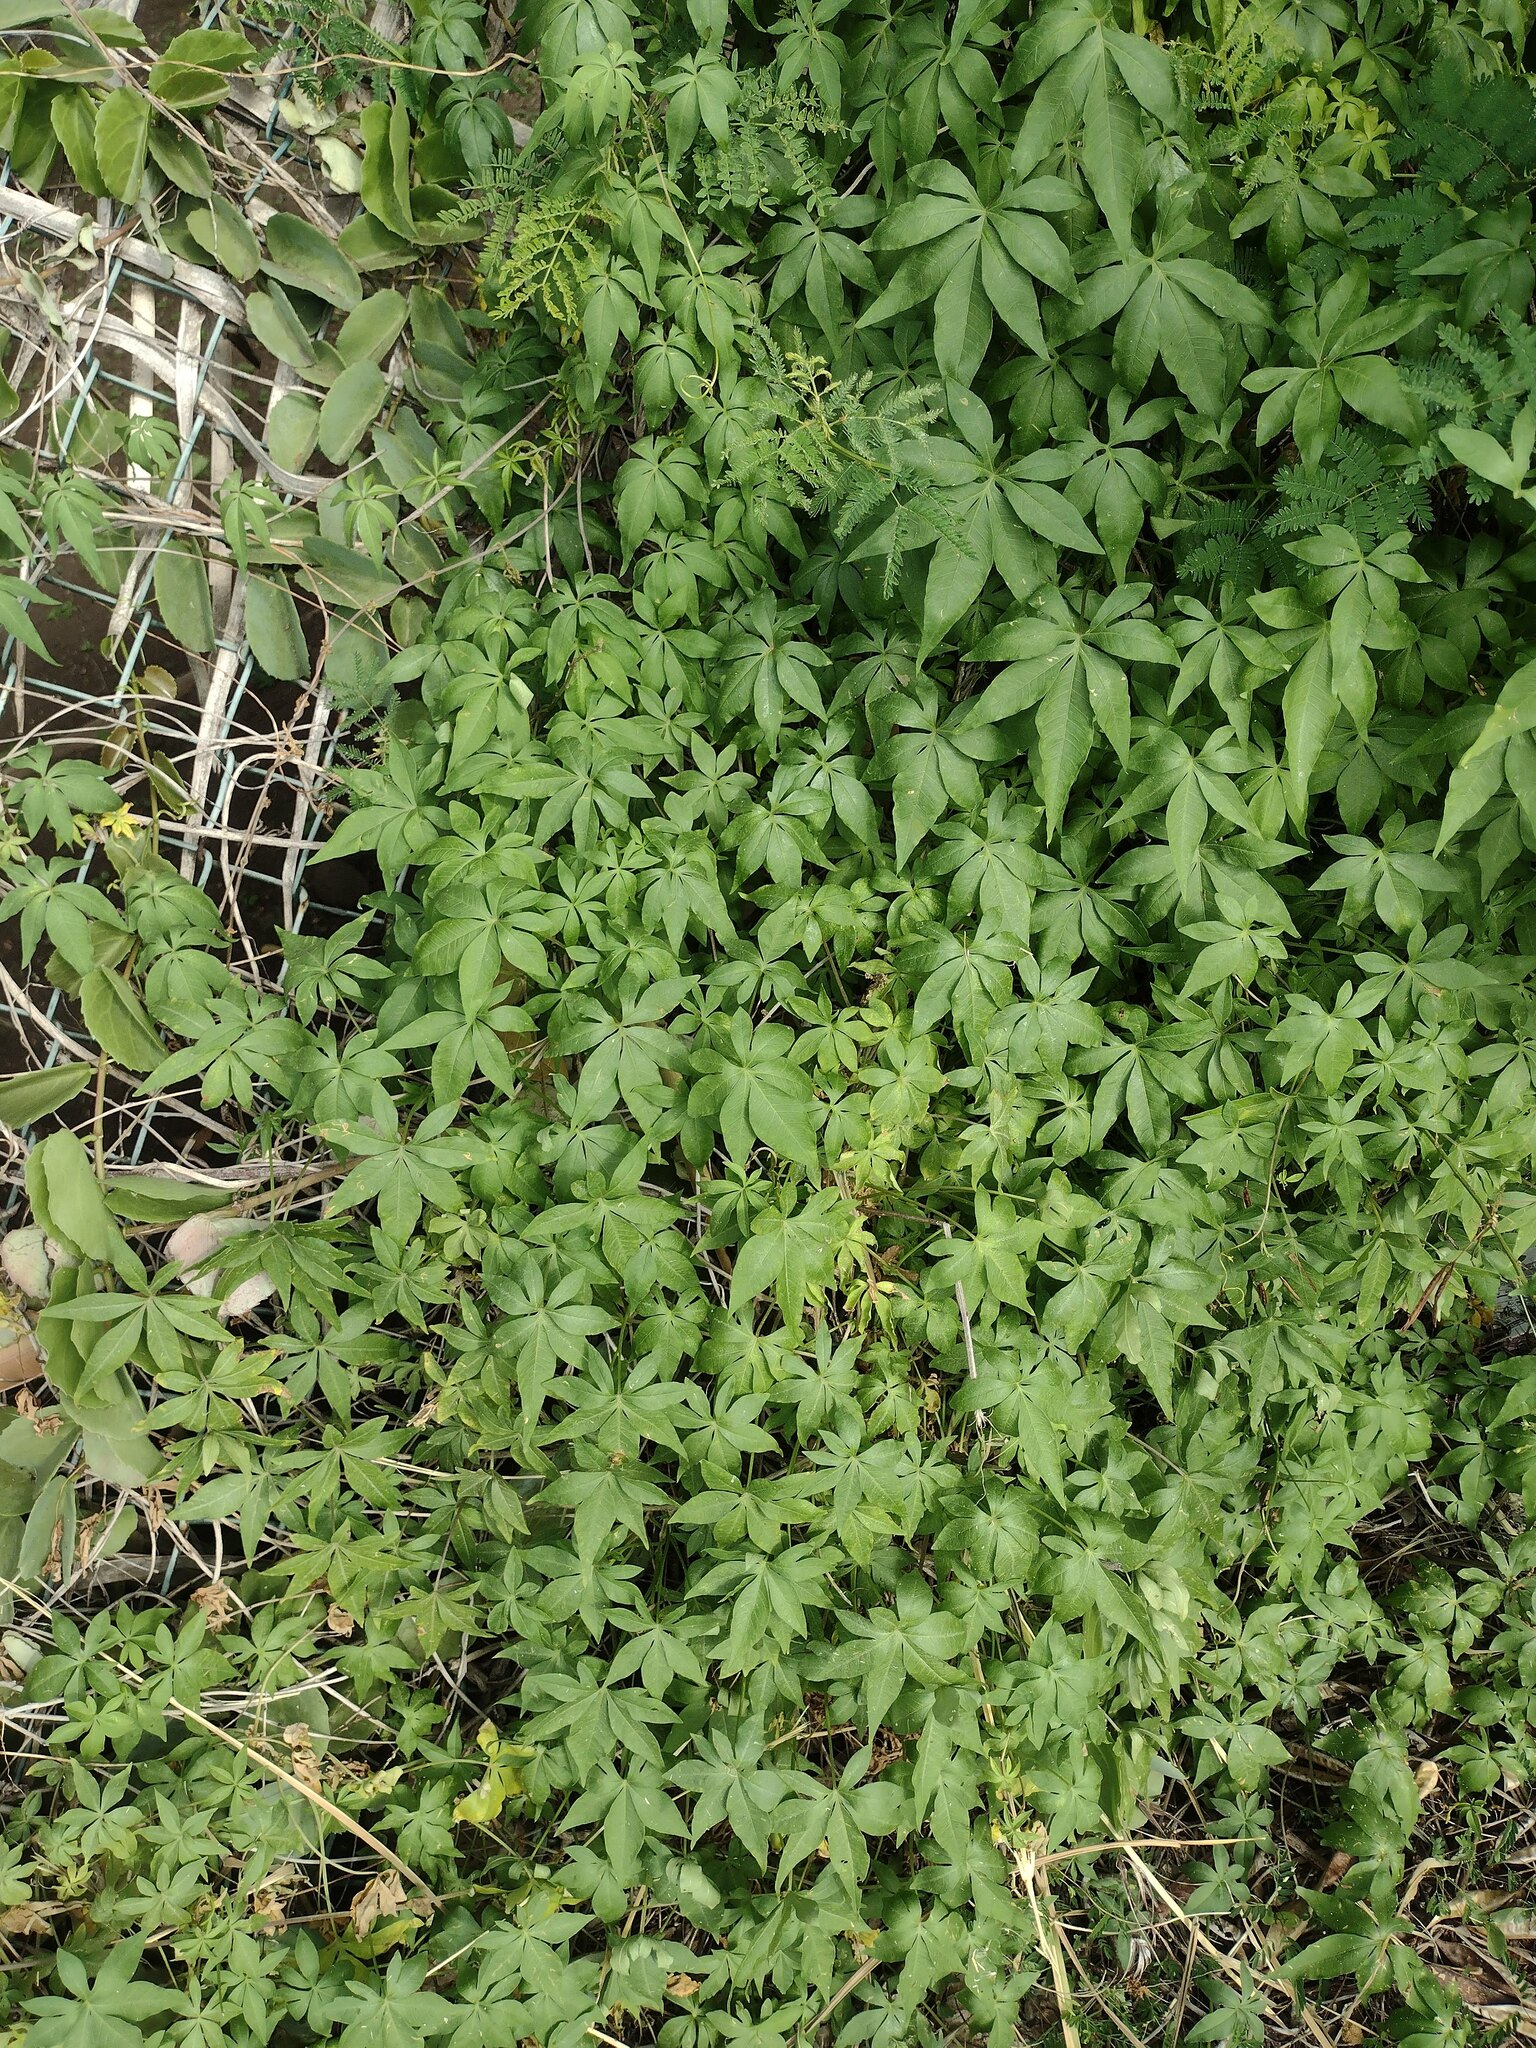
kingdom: Plantae
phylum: Tracheophyta
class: Magnoliopsida
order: Solanales
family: Convolvulaceae
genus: Ipomoea
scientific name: Ipomoea cairica
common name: Mile a minute vine
